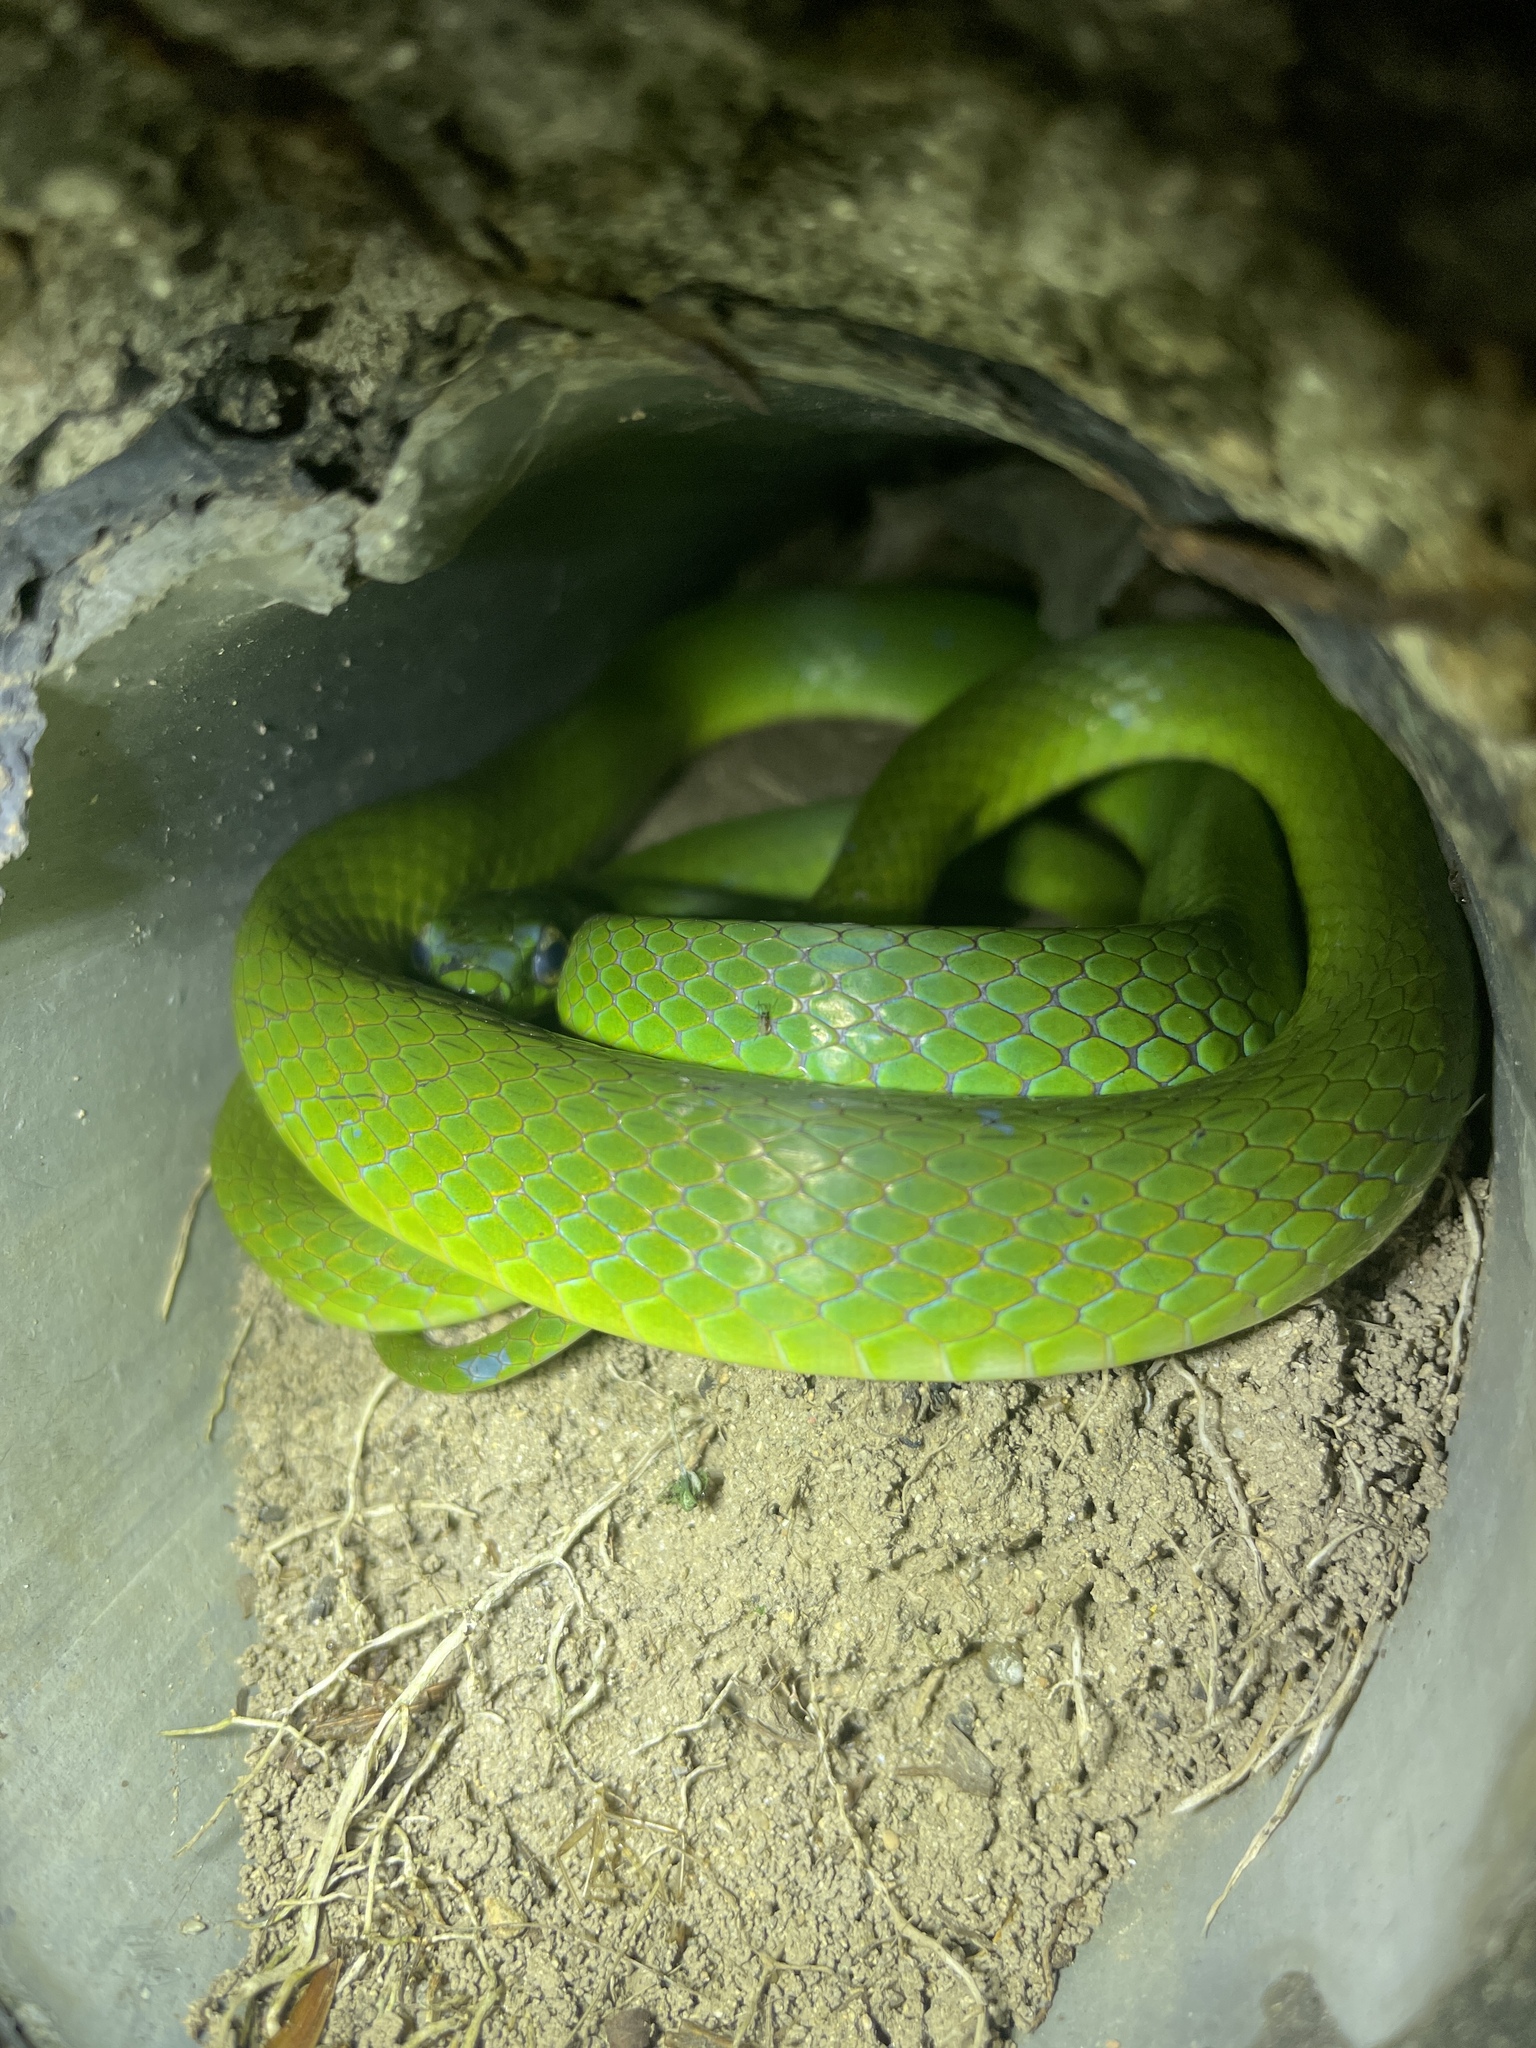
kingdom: Animalia
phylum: Chordata
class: Squamata
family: Colubridae
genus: Ptyas
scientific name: Ptyas major
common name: Chinese green snake
